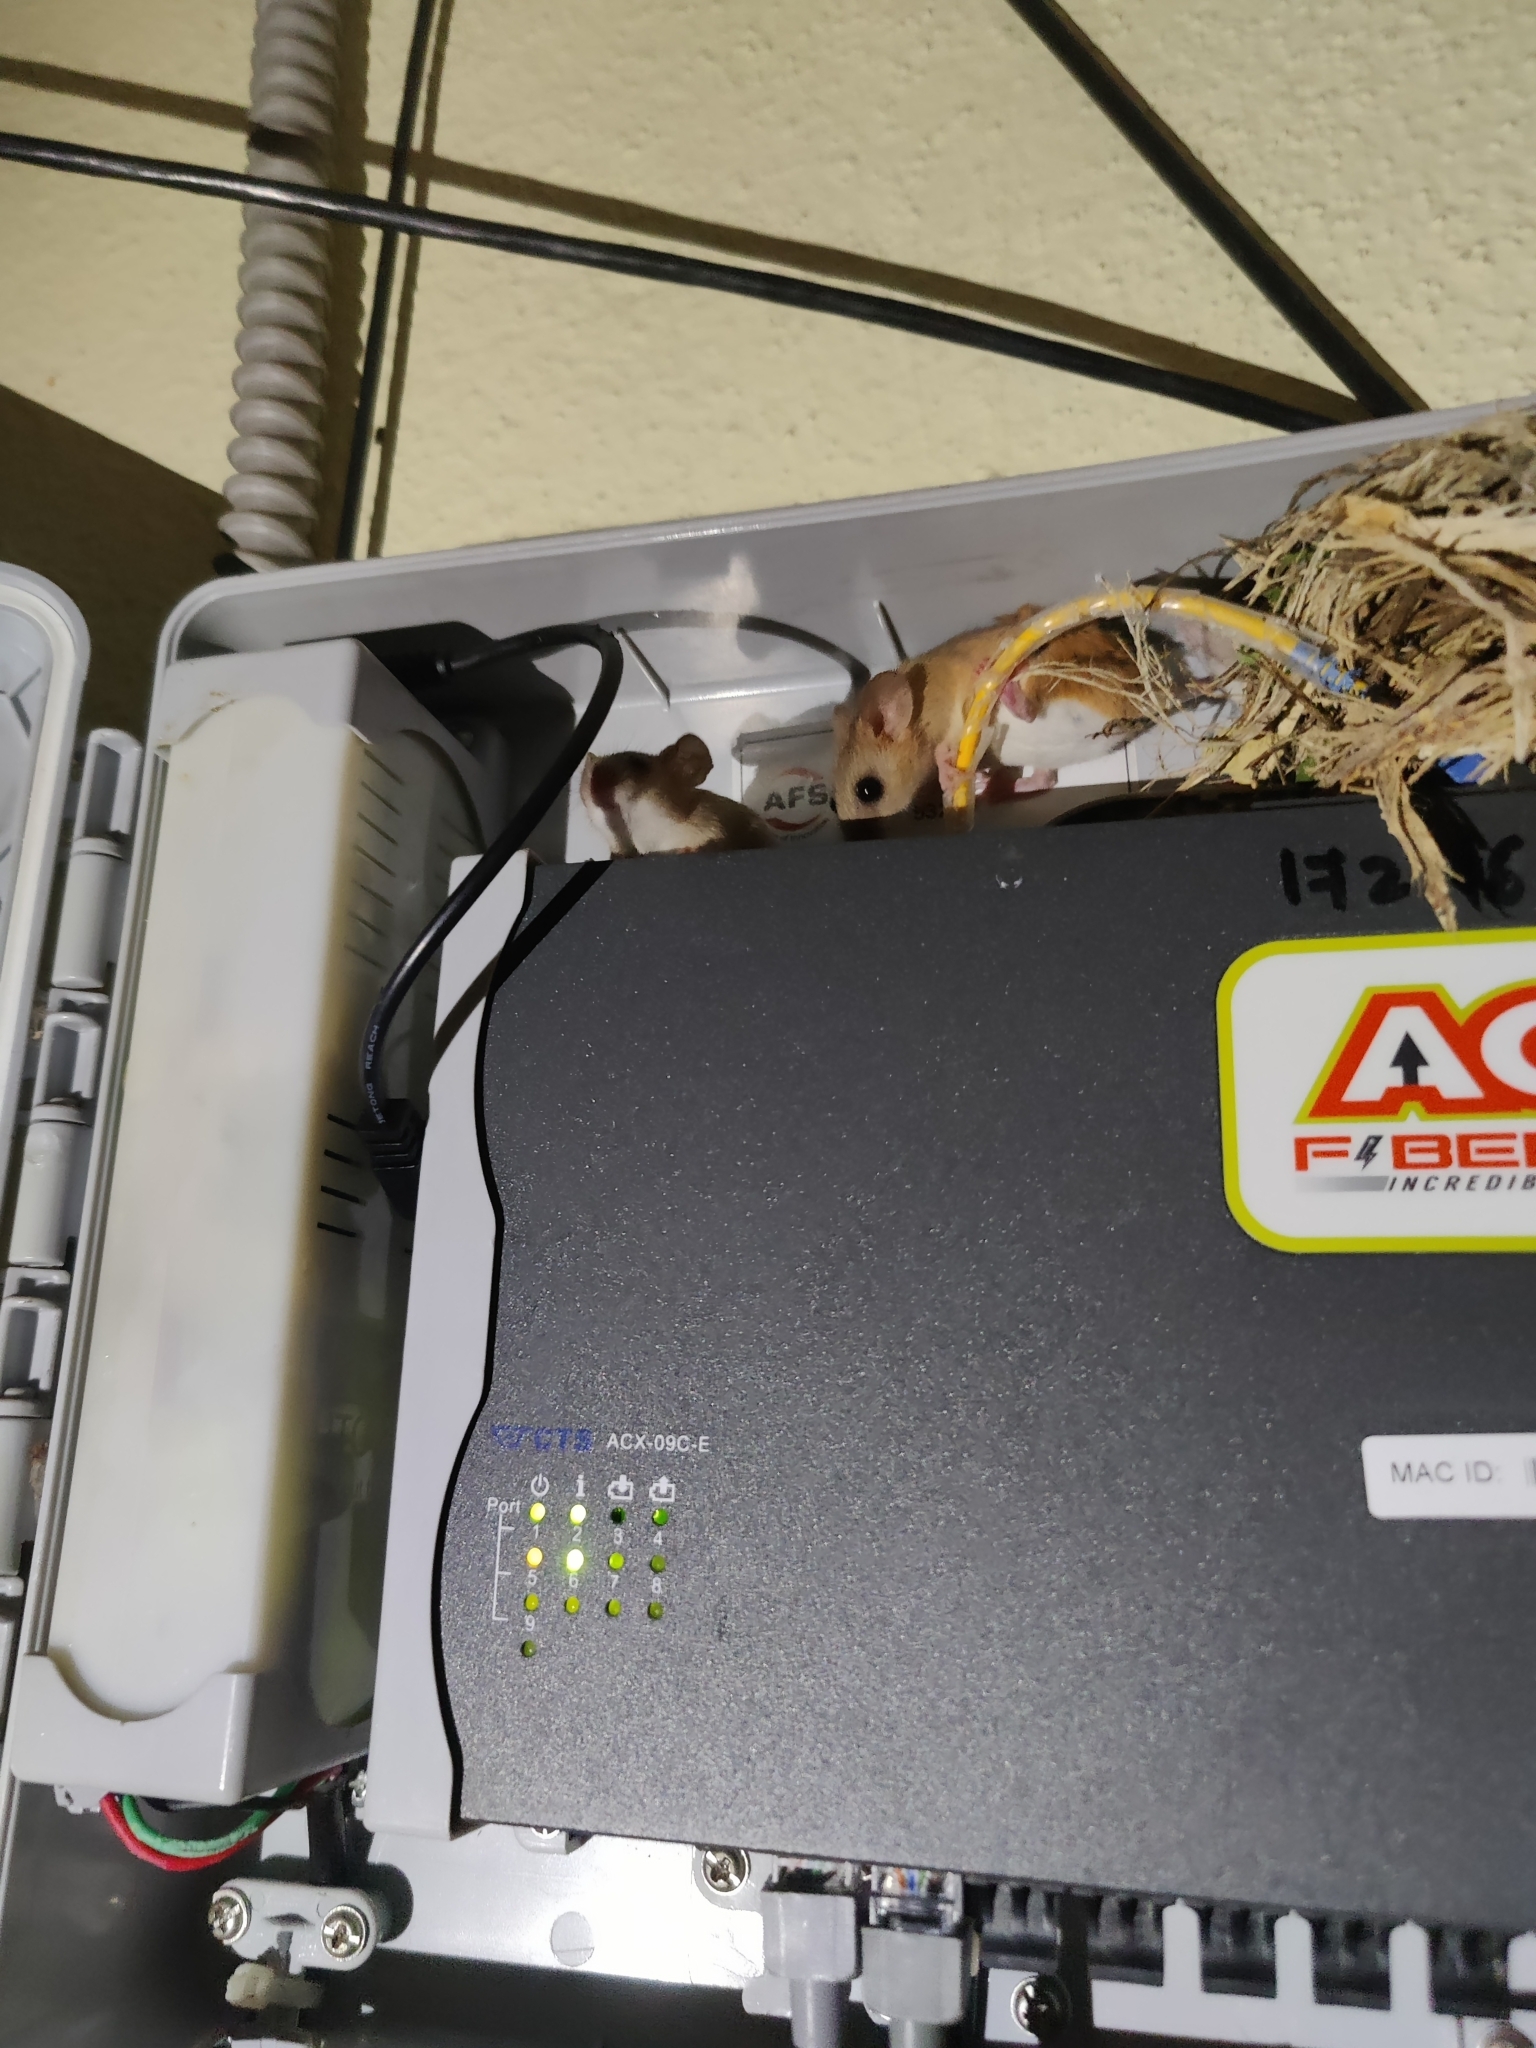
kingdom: Animalia
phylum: Chordata
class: Mammalia
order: Rodentia
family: Muridae
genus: Vandeleuria
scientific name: Vandeleuria oleracea
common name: Indomalayan vandeleuria
